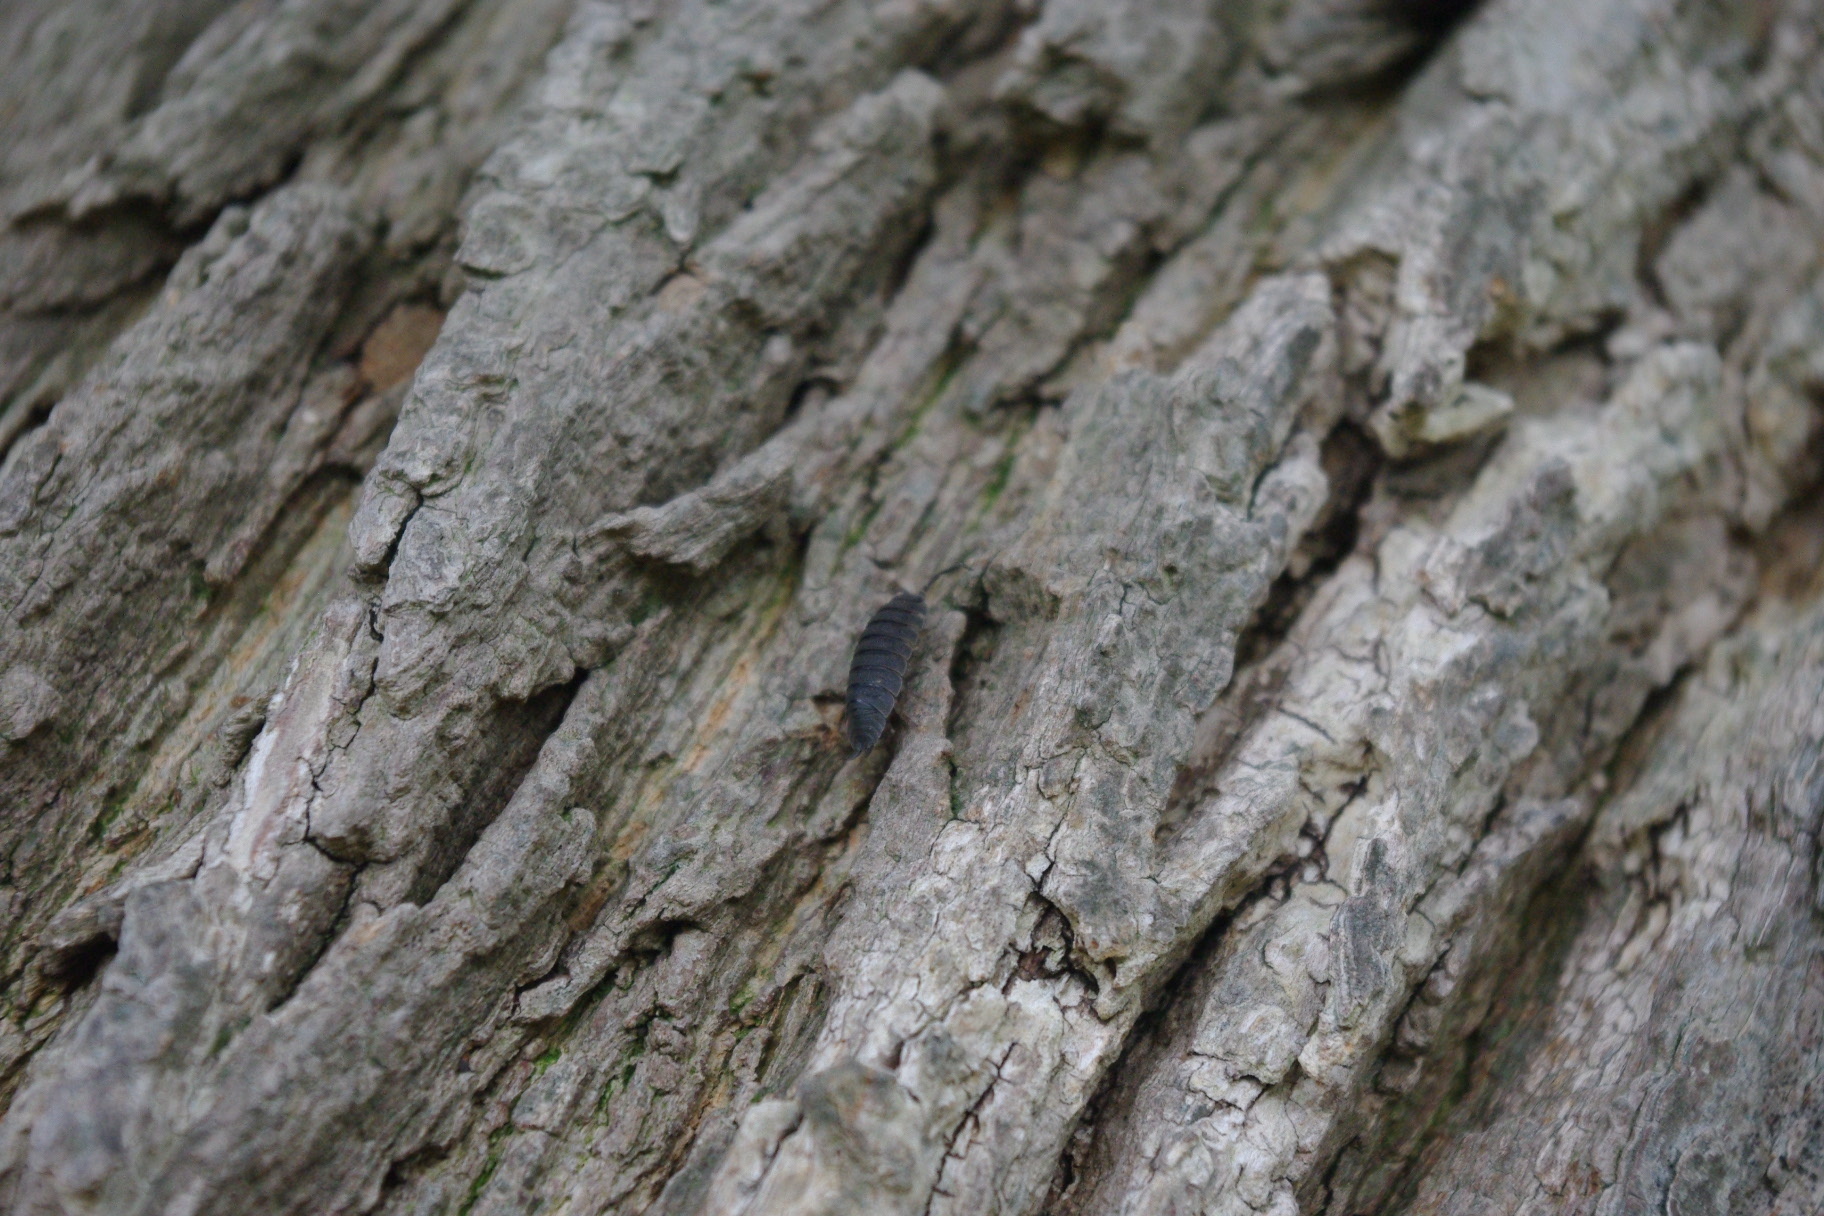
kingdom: Animalia
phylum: Arthropoda
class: Malacostraca
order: Isopoda
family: Porcellionidae
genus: Porcellio
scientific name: Porcellio scaber
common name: Common rough woodlouse
